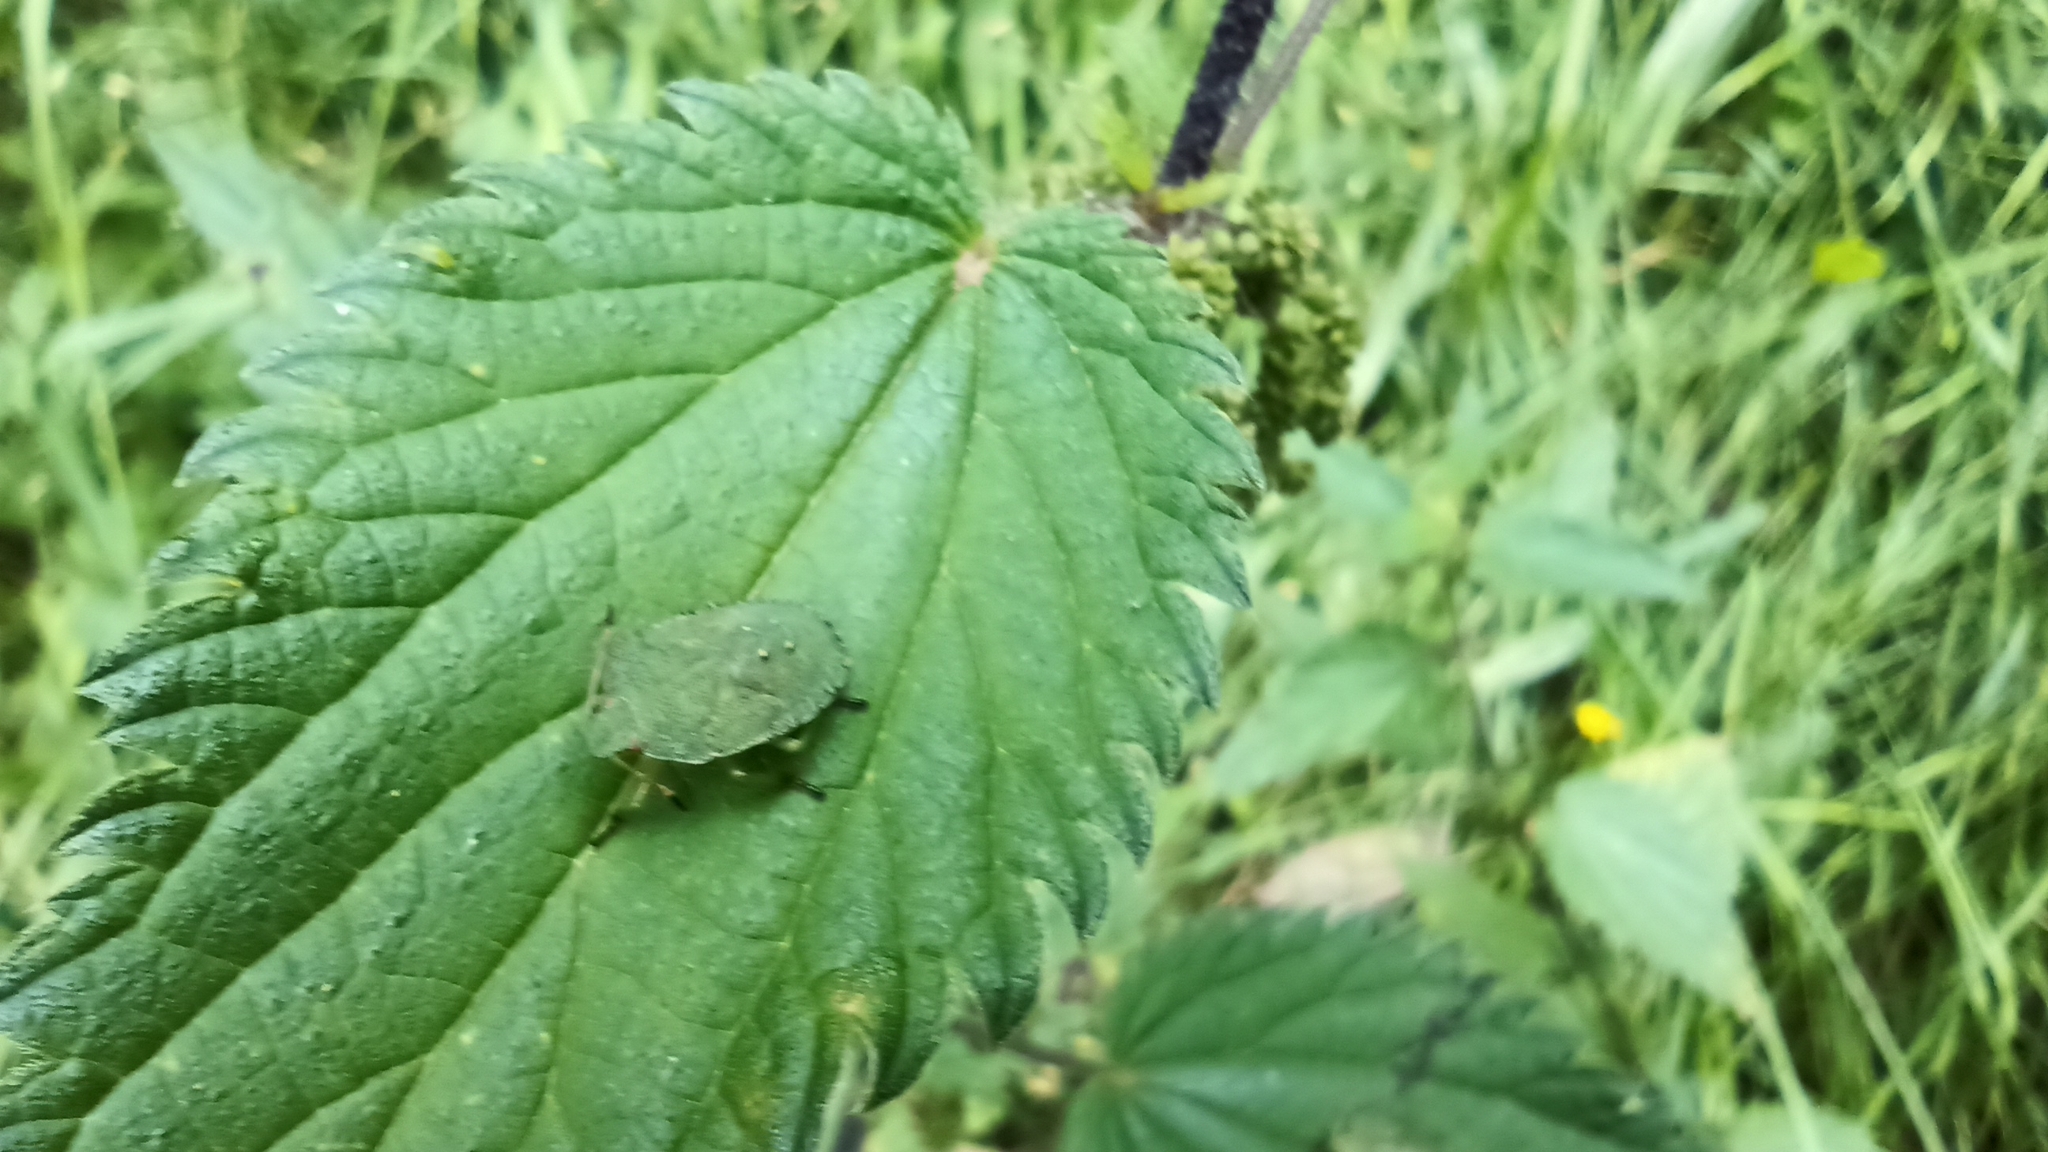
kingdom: Animalia
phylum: Arthropoda
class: Insecta
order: Hemiptera
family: Pentatomidae
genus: Palomena
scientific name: Palomena prasina
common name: Green shieldbug
